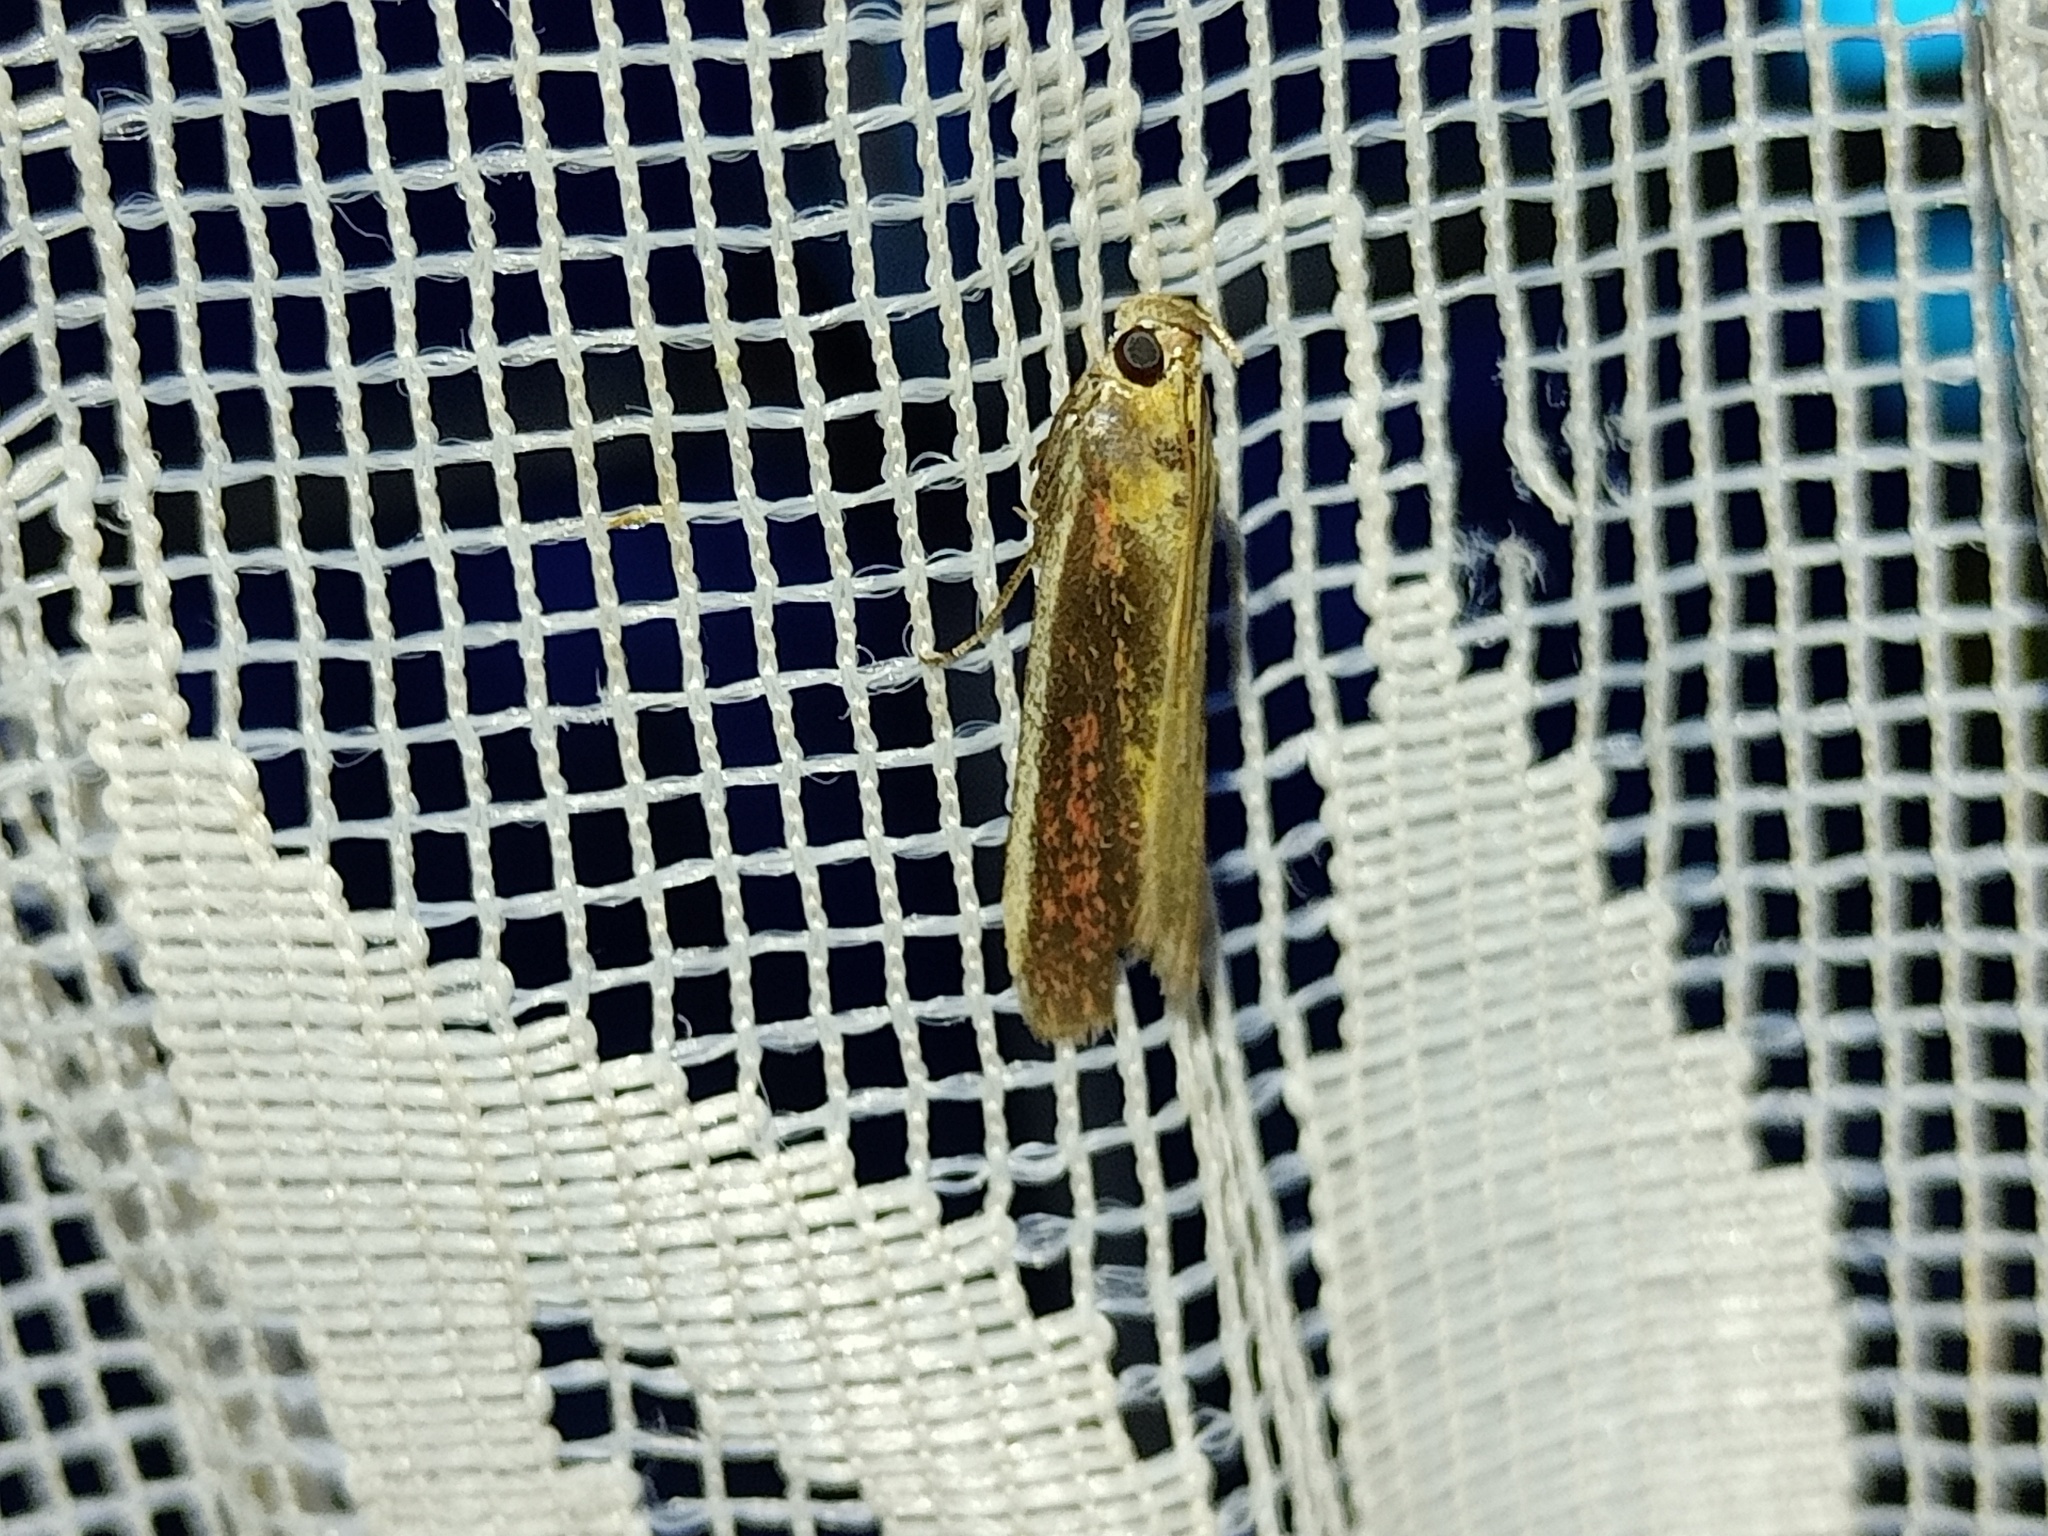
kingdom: Animalia
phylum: Arthropoda
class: Insecta
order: Lepidoptera
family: Pyralidae
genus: Oncocera
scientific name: Oncocera semirubella
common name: Rosy-striped knot-horn
